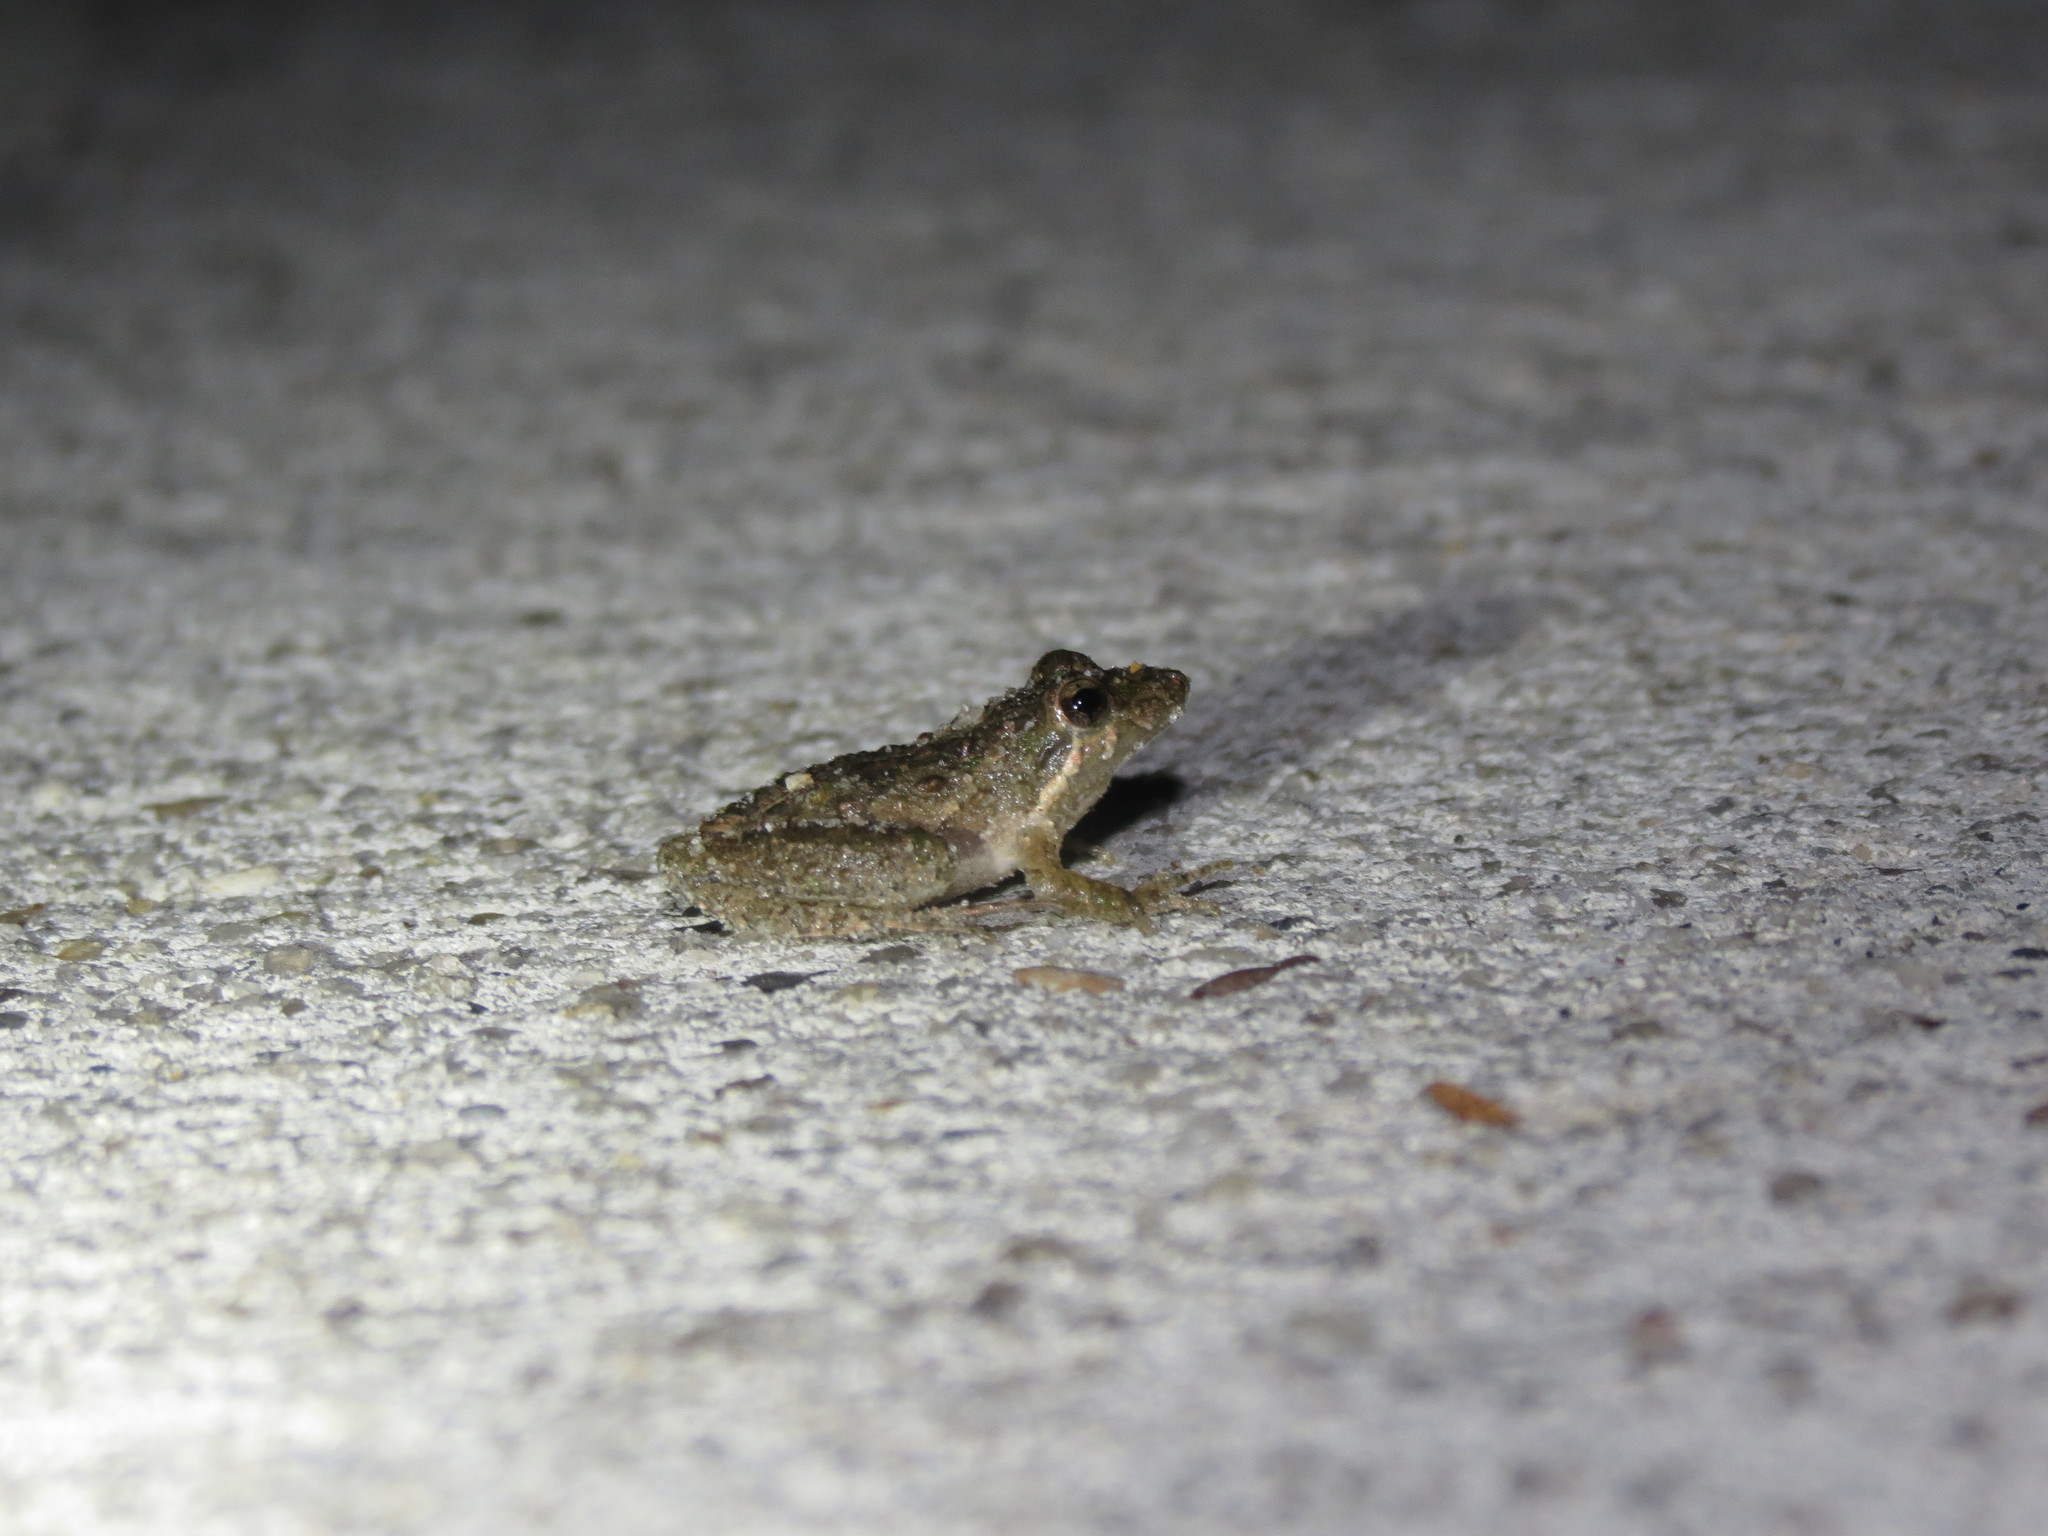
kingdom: Animalia
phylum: Chordata
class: Amphibia
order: Anura
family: Hylidae
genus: Acris
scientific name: Acris gryllus
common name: Southern cricket frog
